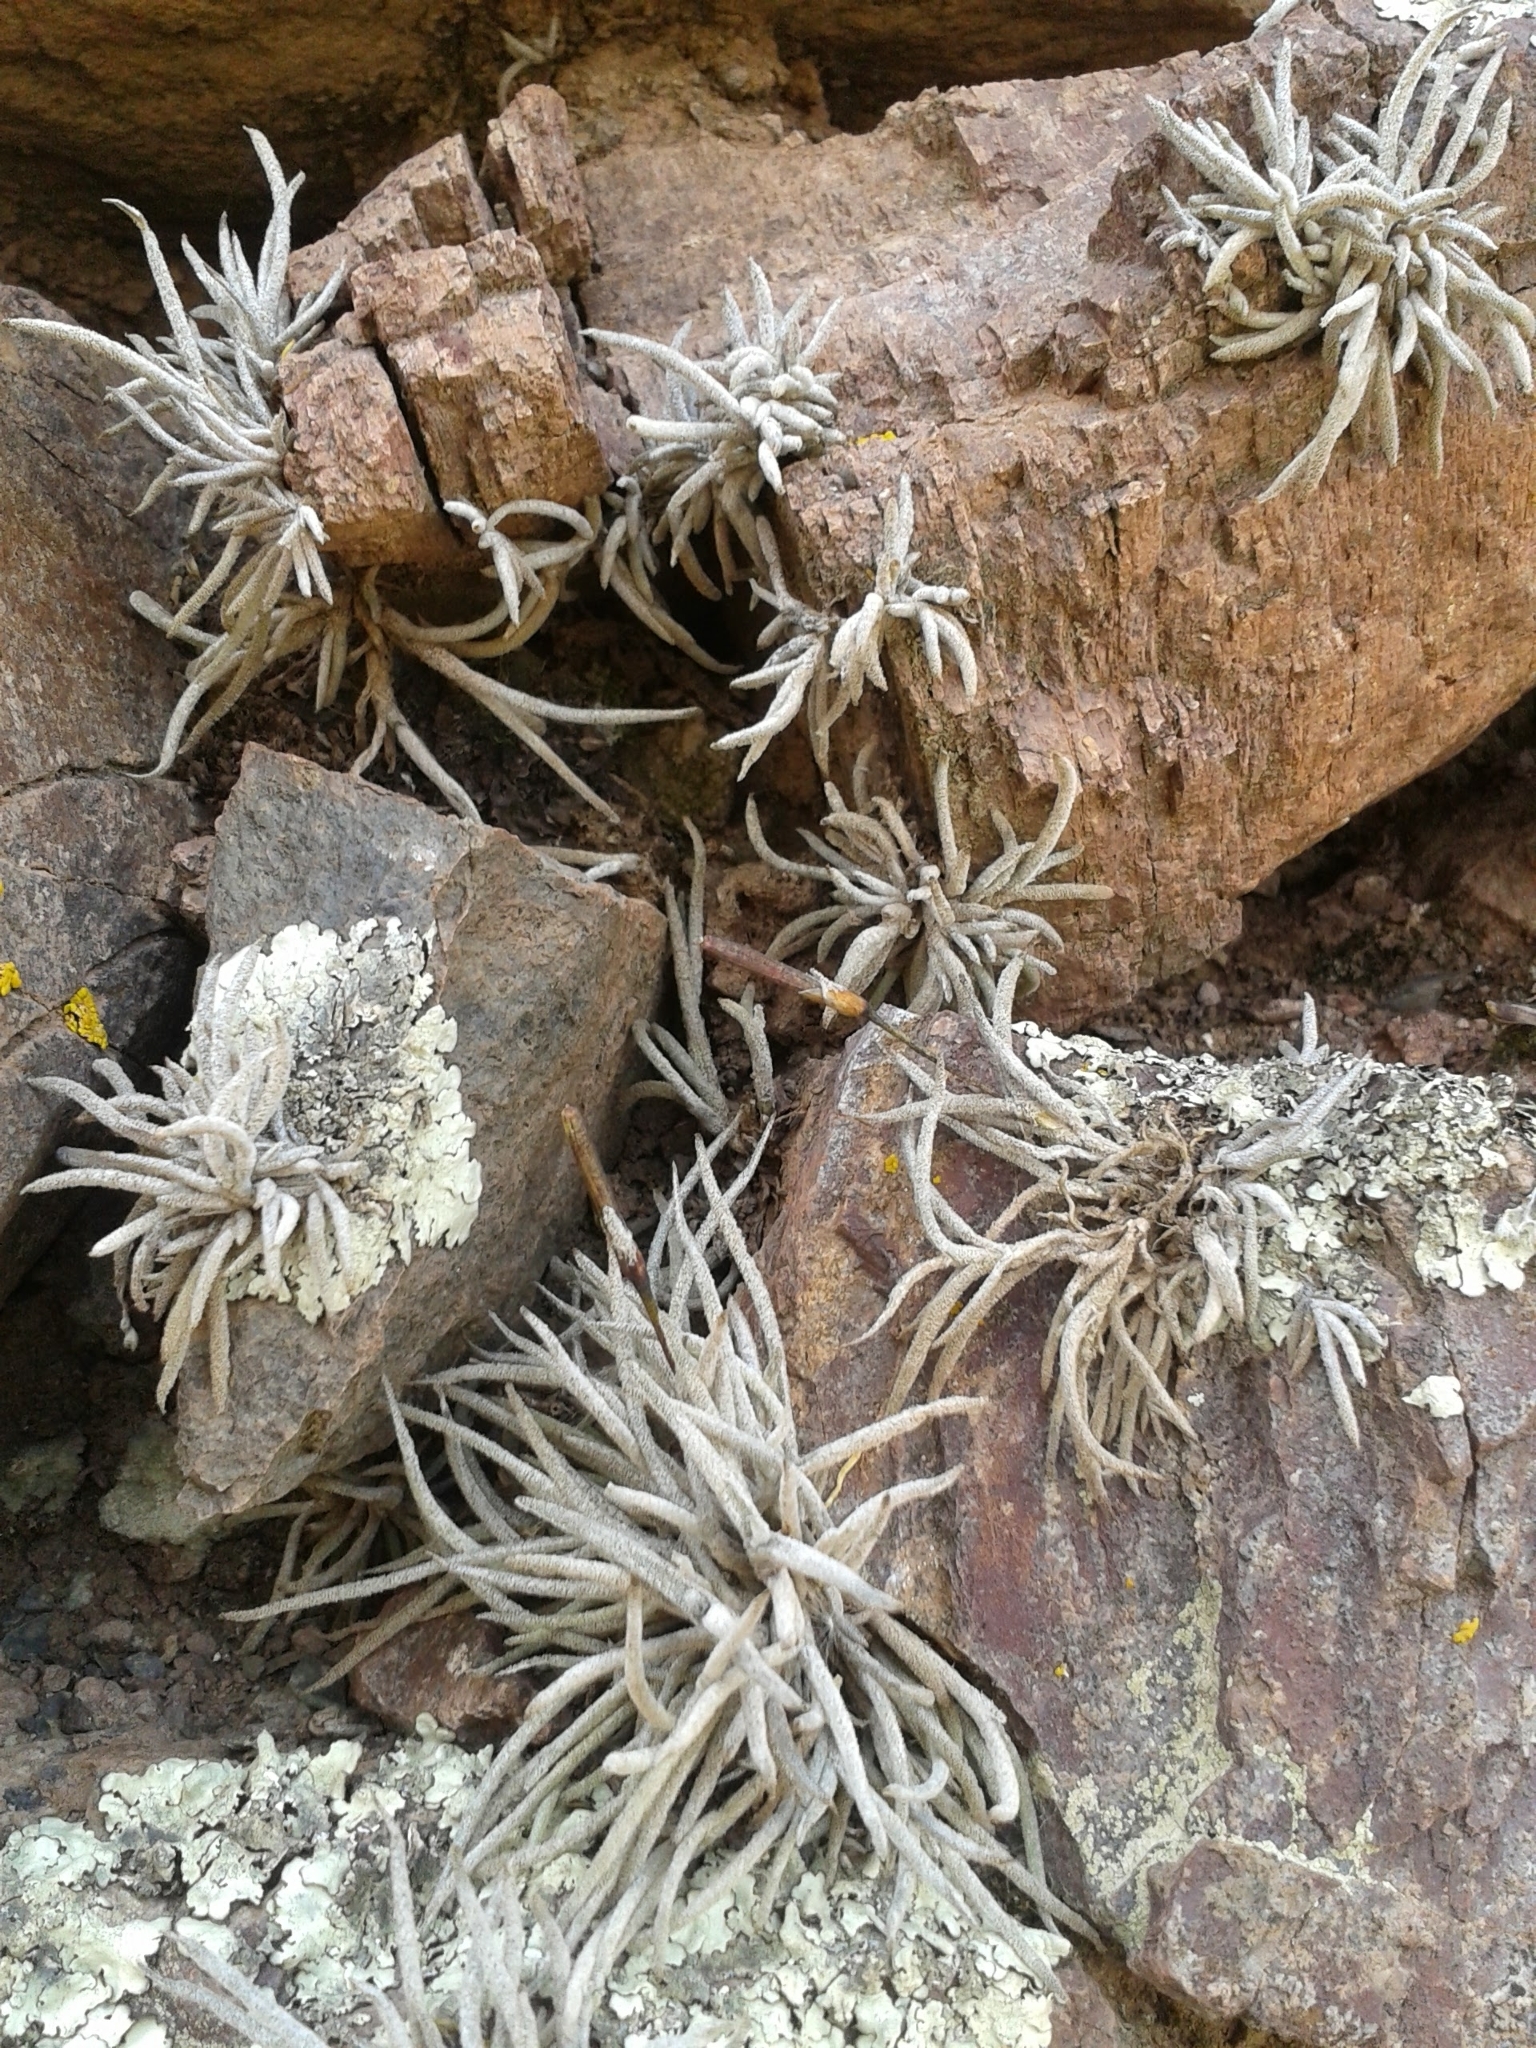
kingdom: Plantae
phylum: Tracheophyta
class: Liliopsida
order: Poales
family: Bromeliaceae
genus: Tillandsia
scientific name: Tillandsia recurvata
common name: Small ballmoss
